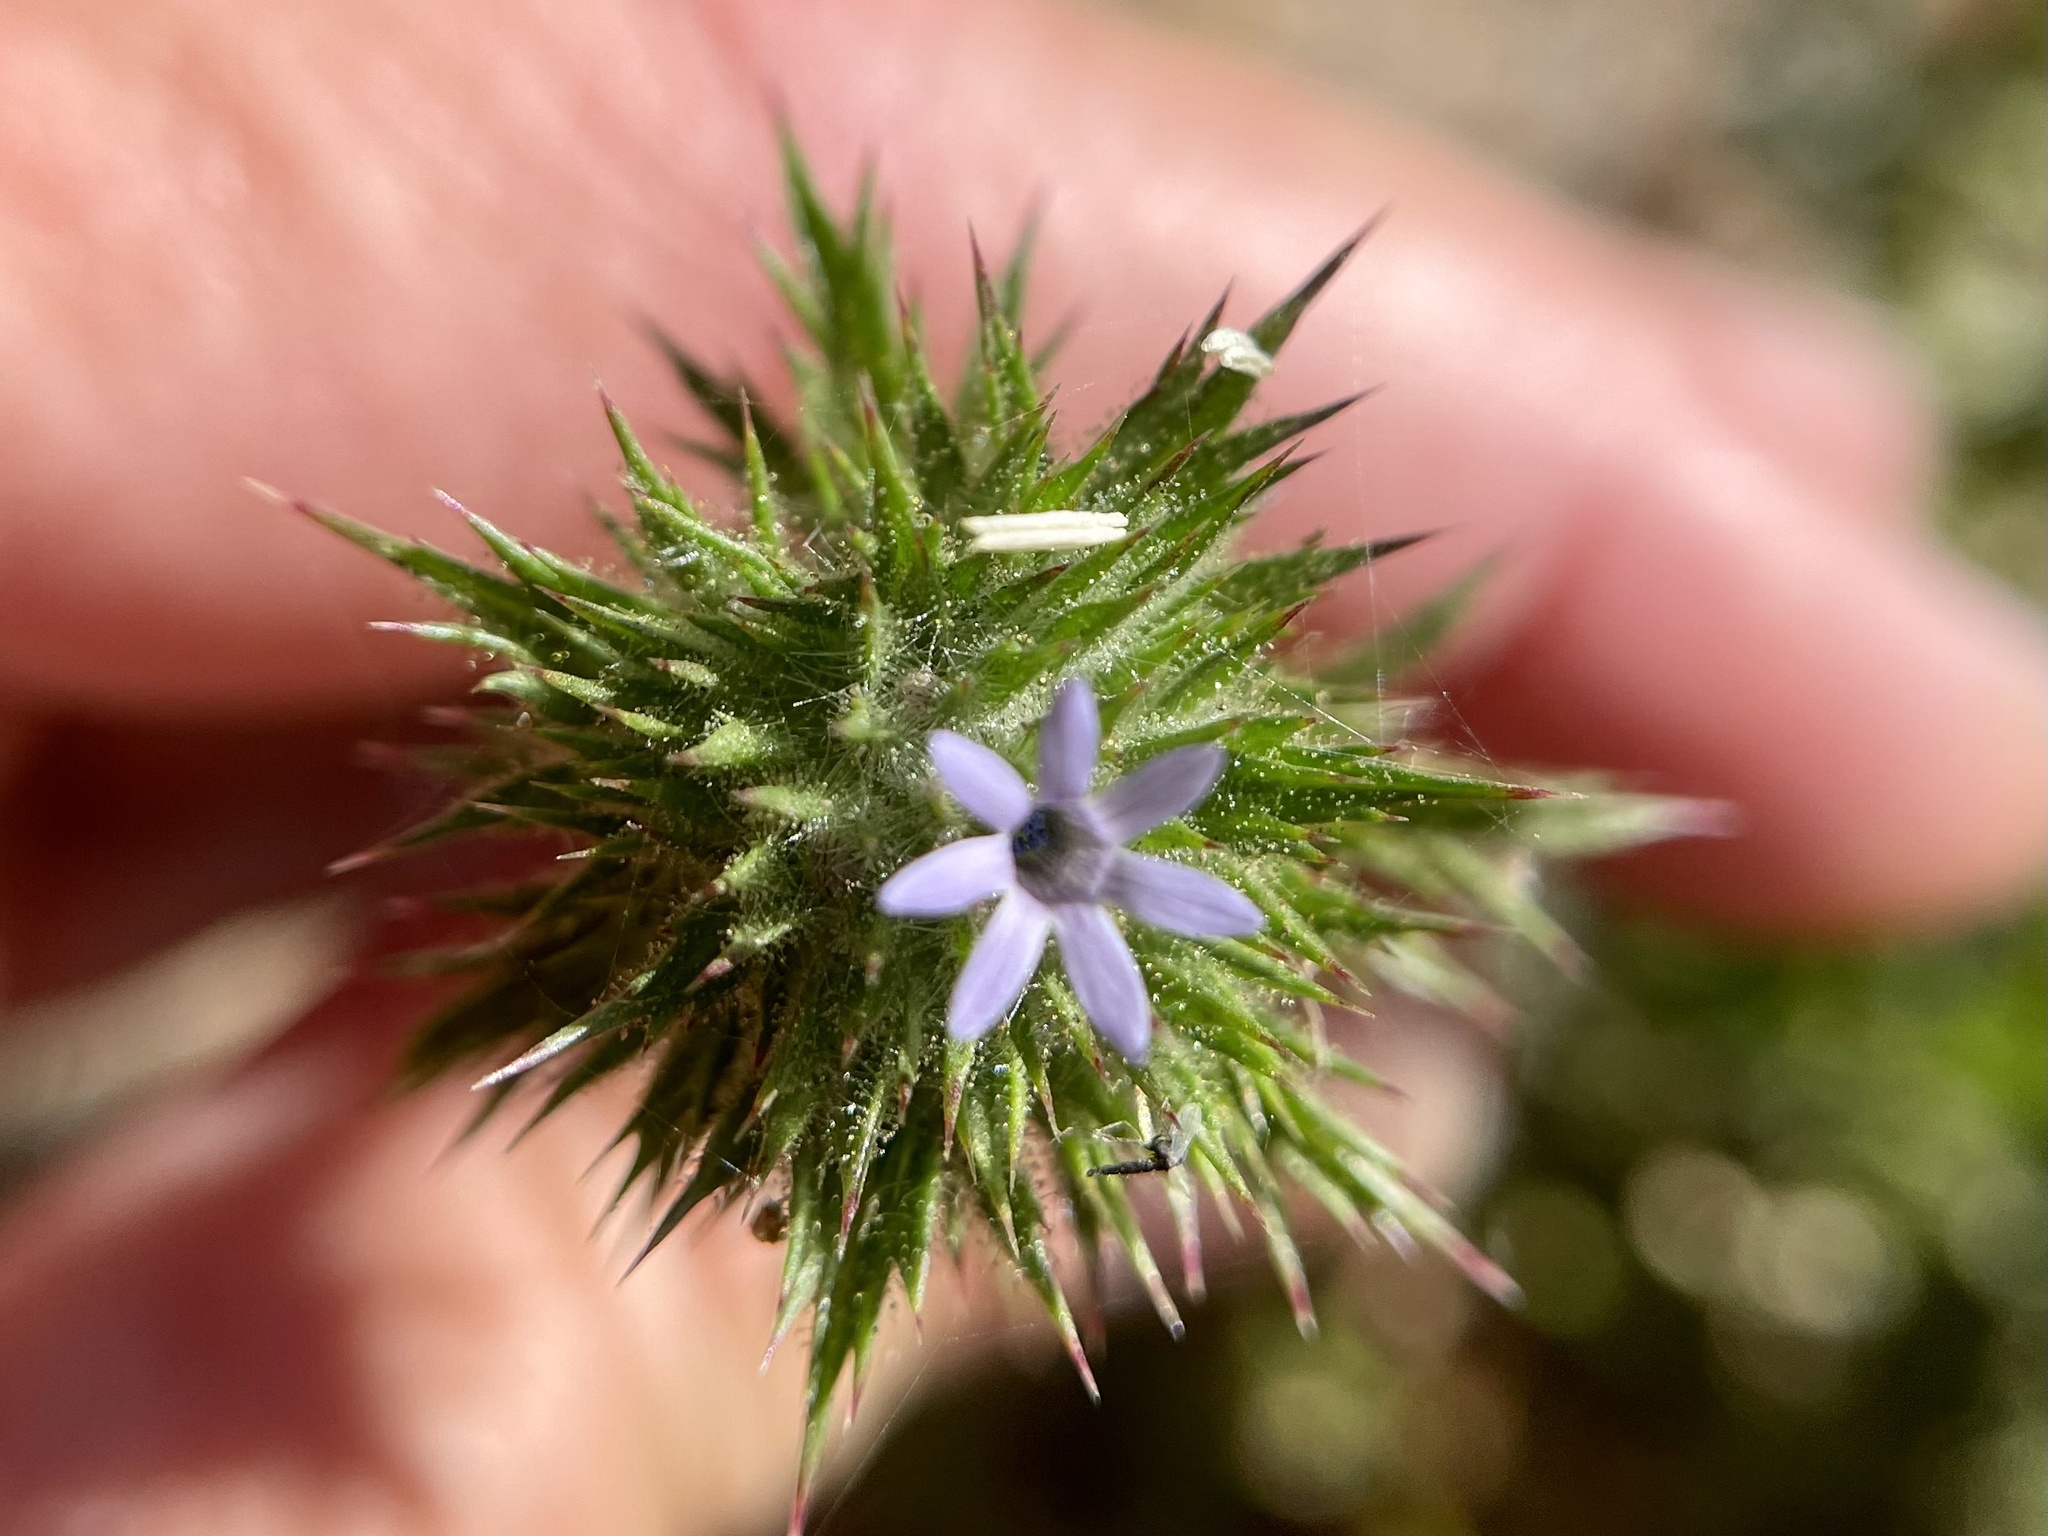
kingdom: Plantae
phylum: Tracheophyta
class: Magnoliopsida
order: Ericales
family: Polemoniaceae
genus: Navarretia
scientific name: Navarretia squarrosa
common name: Skunkweed
